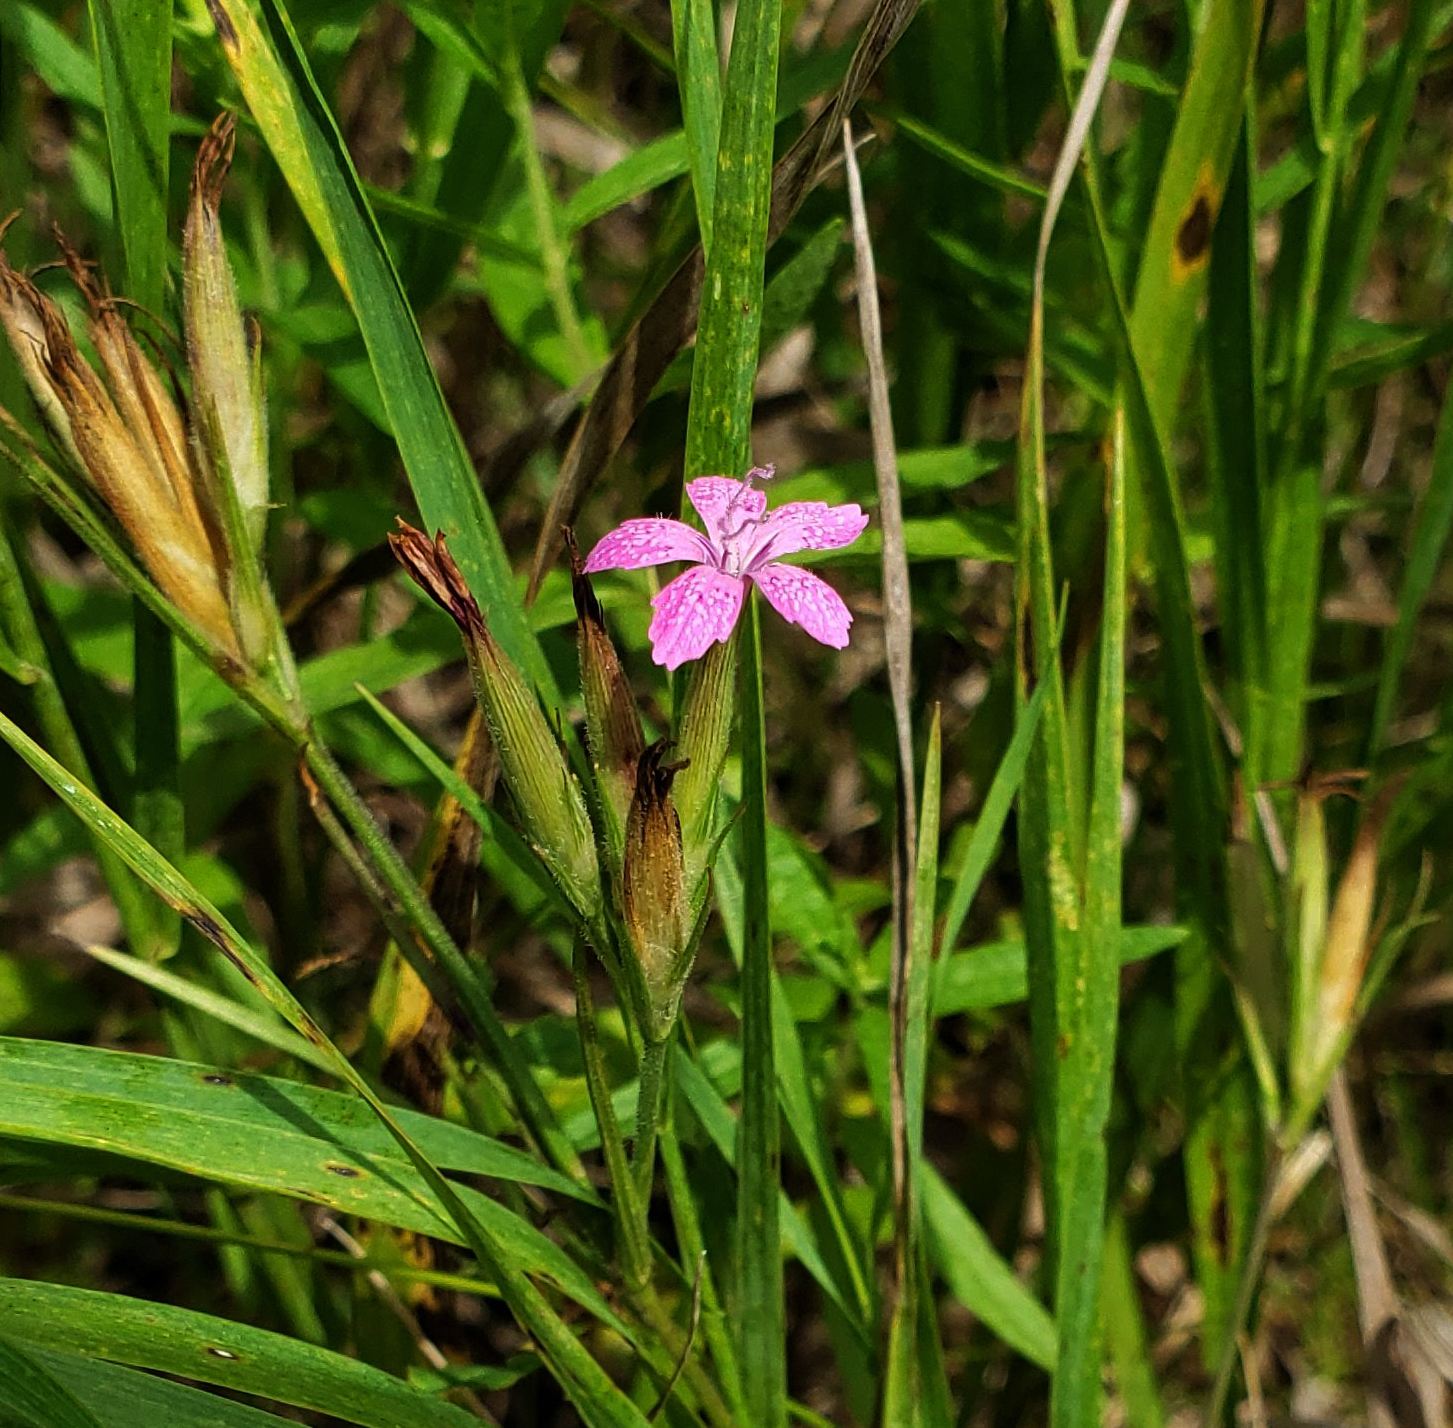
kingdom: Plantae
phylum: Tracheophyta
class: Magnoliopsida
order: Caryophyllales
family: Caryophyllaceae
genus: Dianthus
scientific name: Dianthus armeria
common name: Deptford pink
